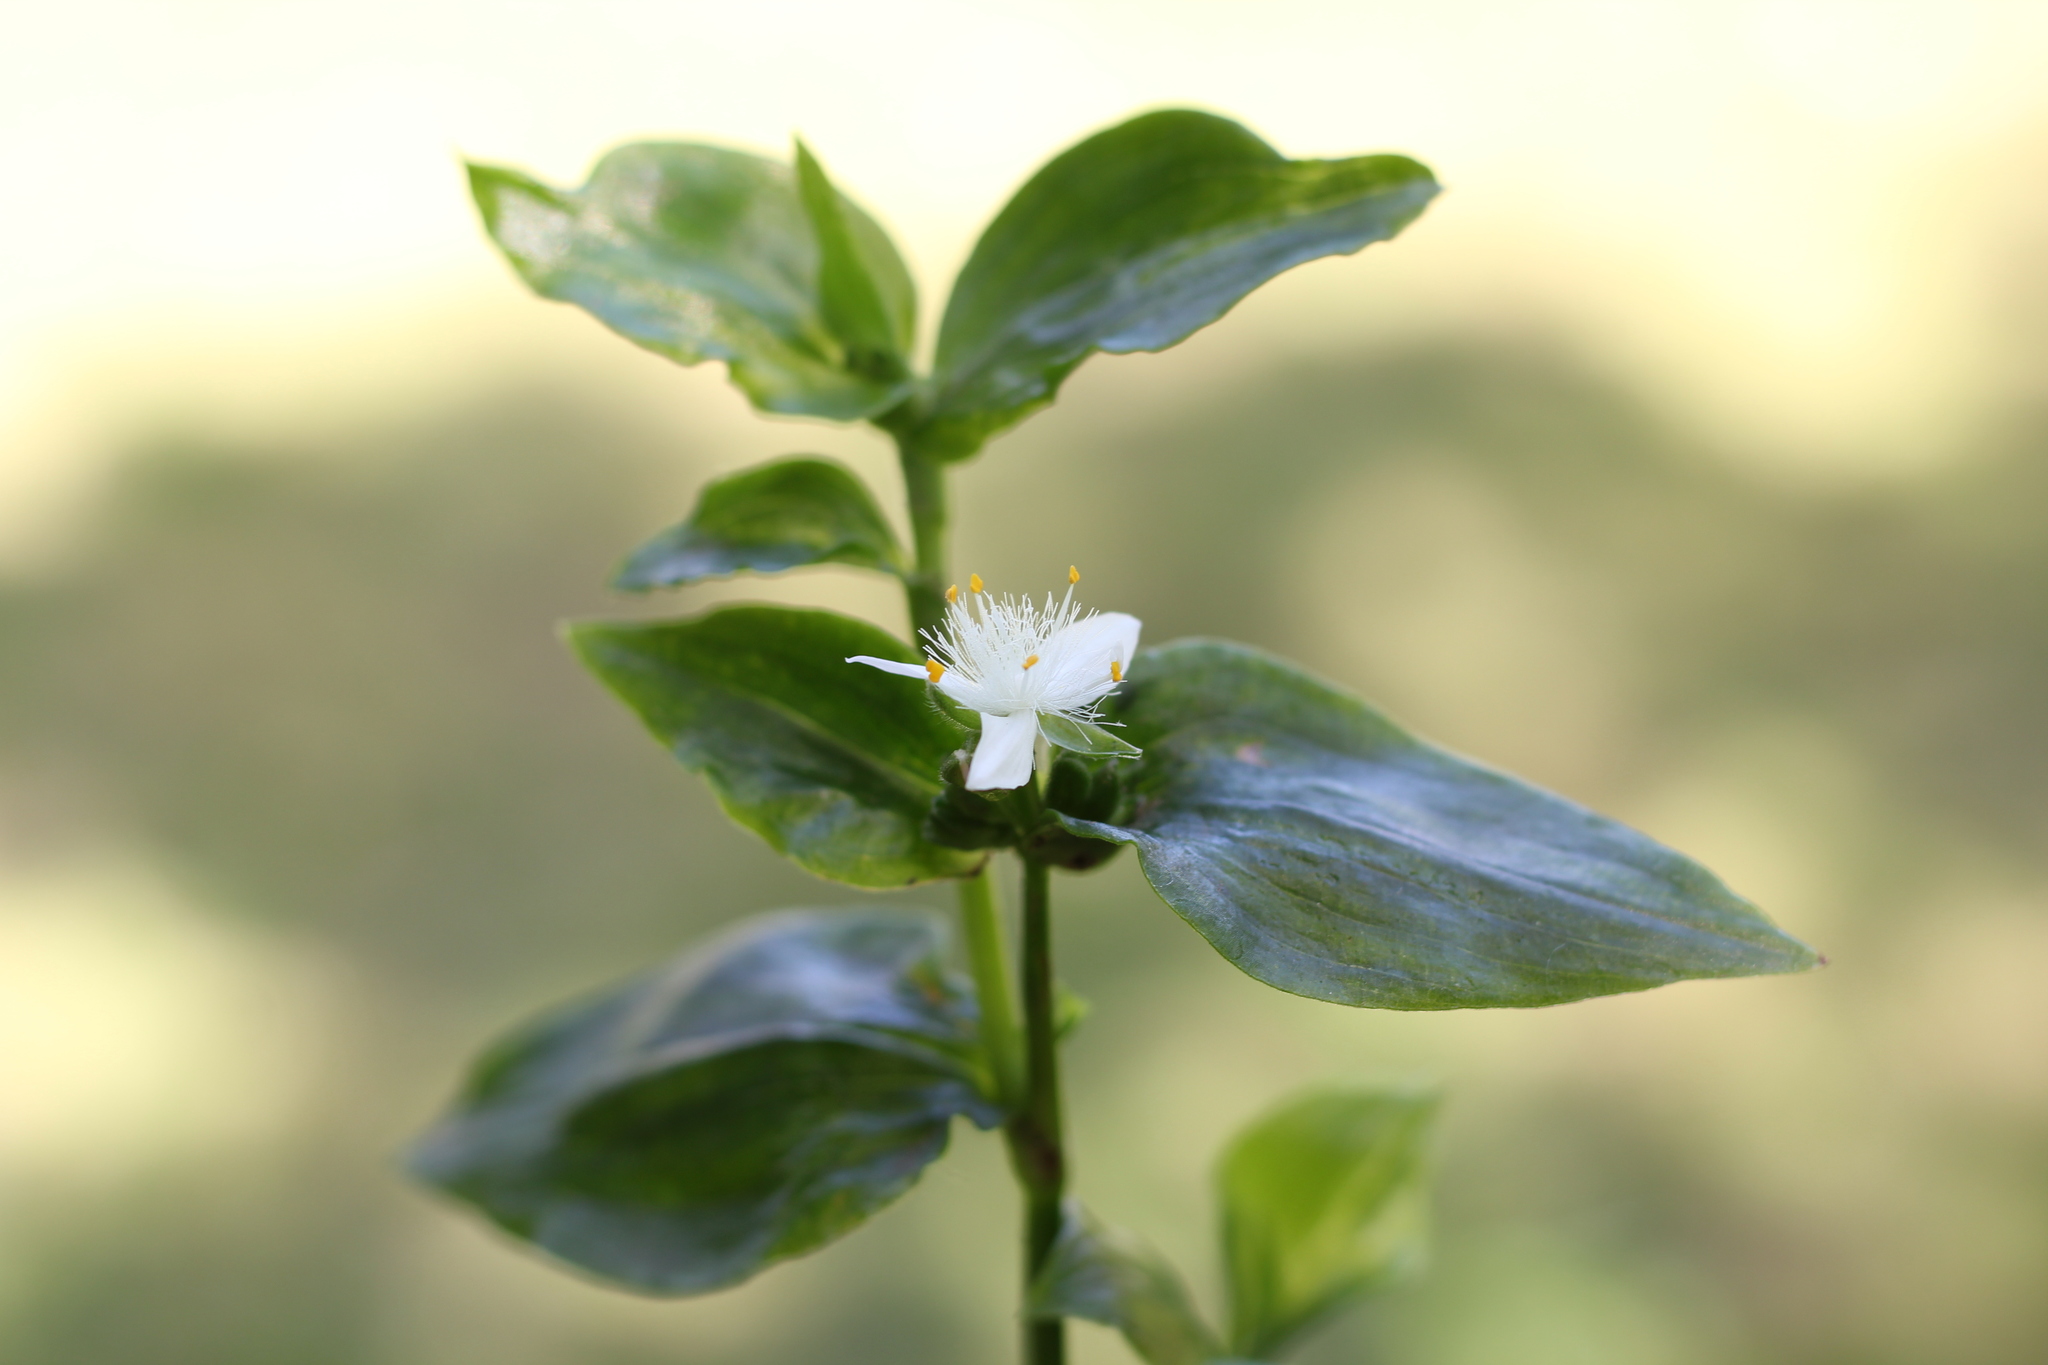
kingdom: Plantae
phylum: Tracheophyta
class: Liliopsida
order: Commelinales
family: Commelinaceae
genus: Tradescantia
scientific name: Tradescantia fluminensis
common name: Wandering-jew
